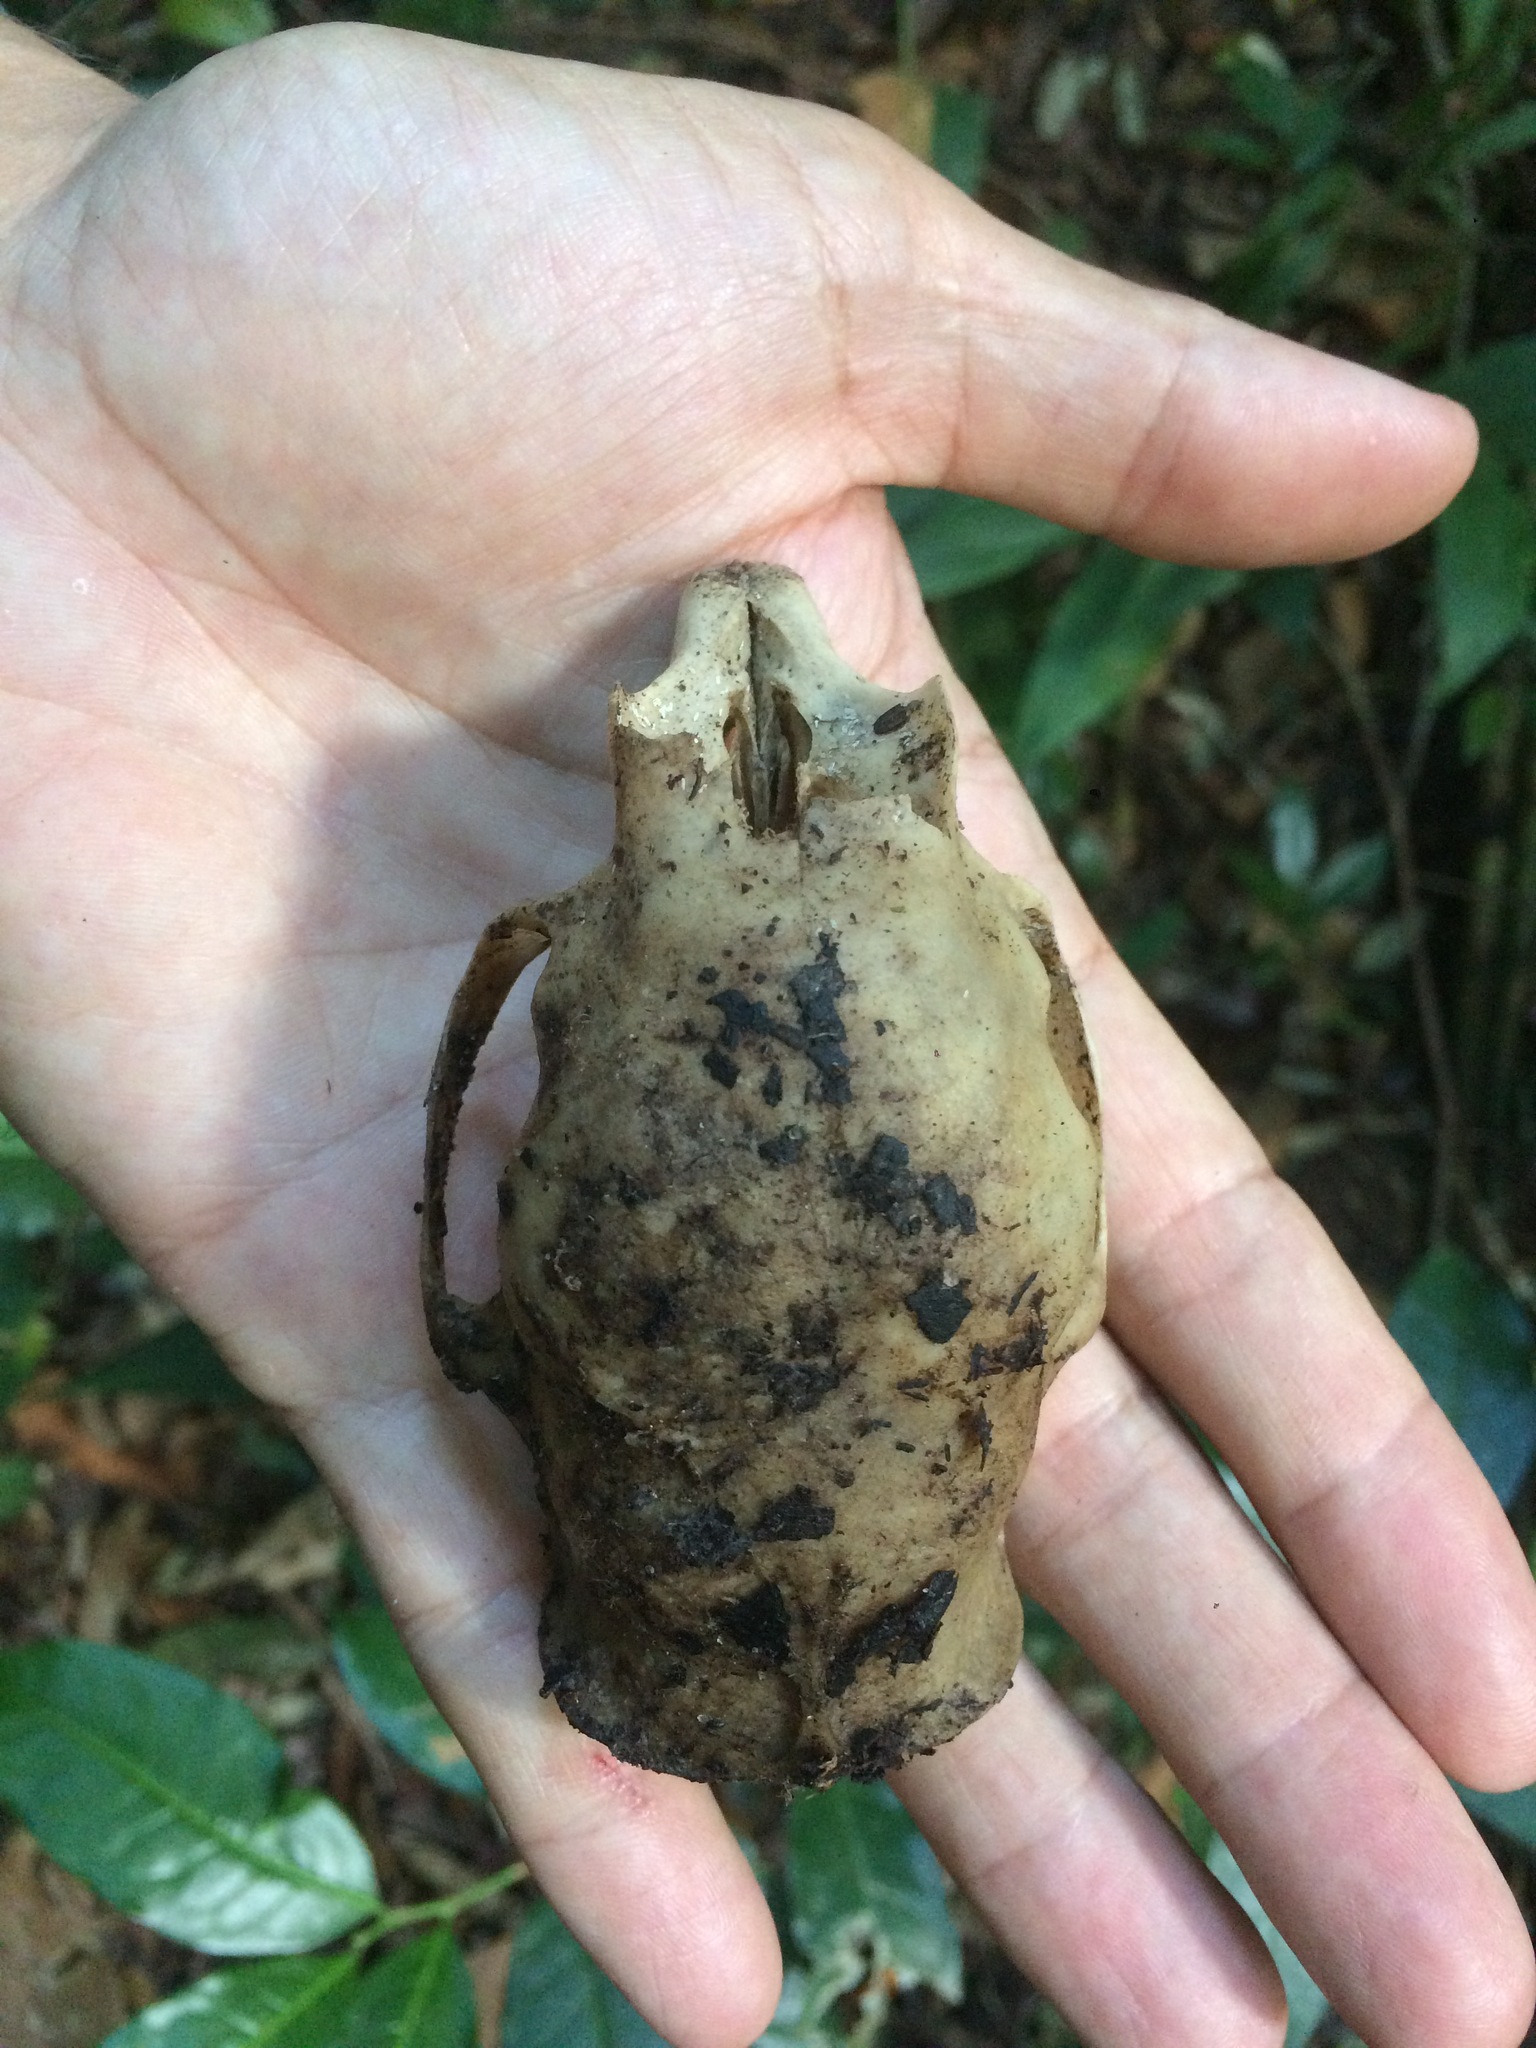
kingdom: Animalia
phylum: Chordata
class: Mammalia
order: Rodentia
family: Erethizontidae
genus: Coendou
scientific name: Coendou
